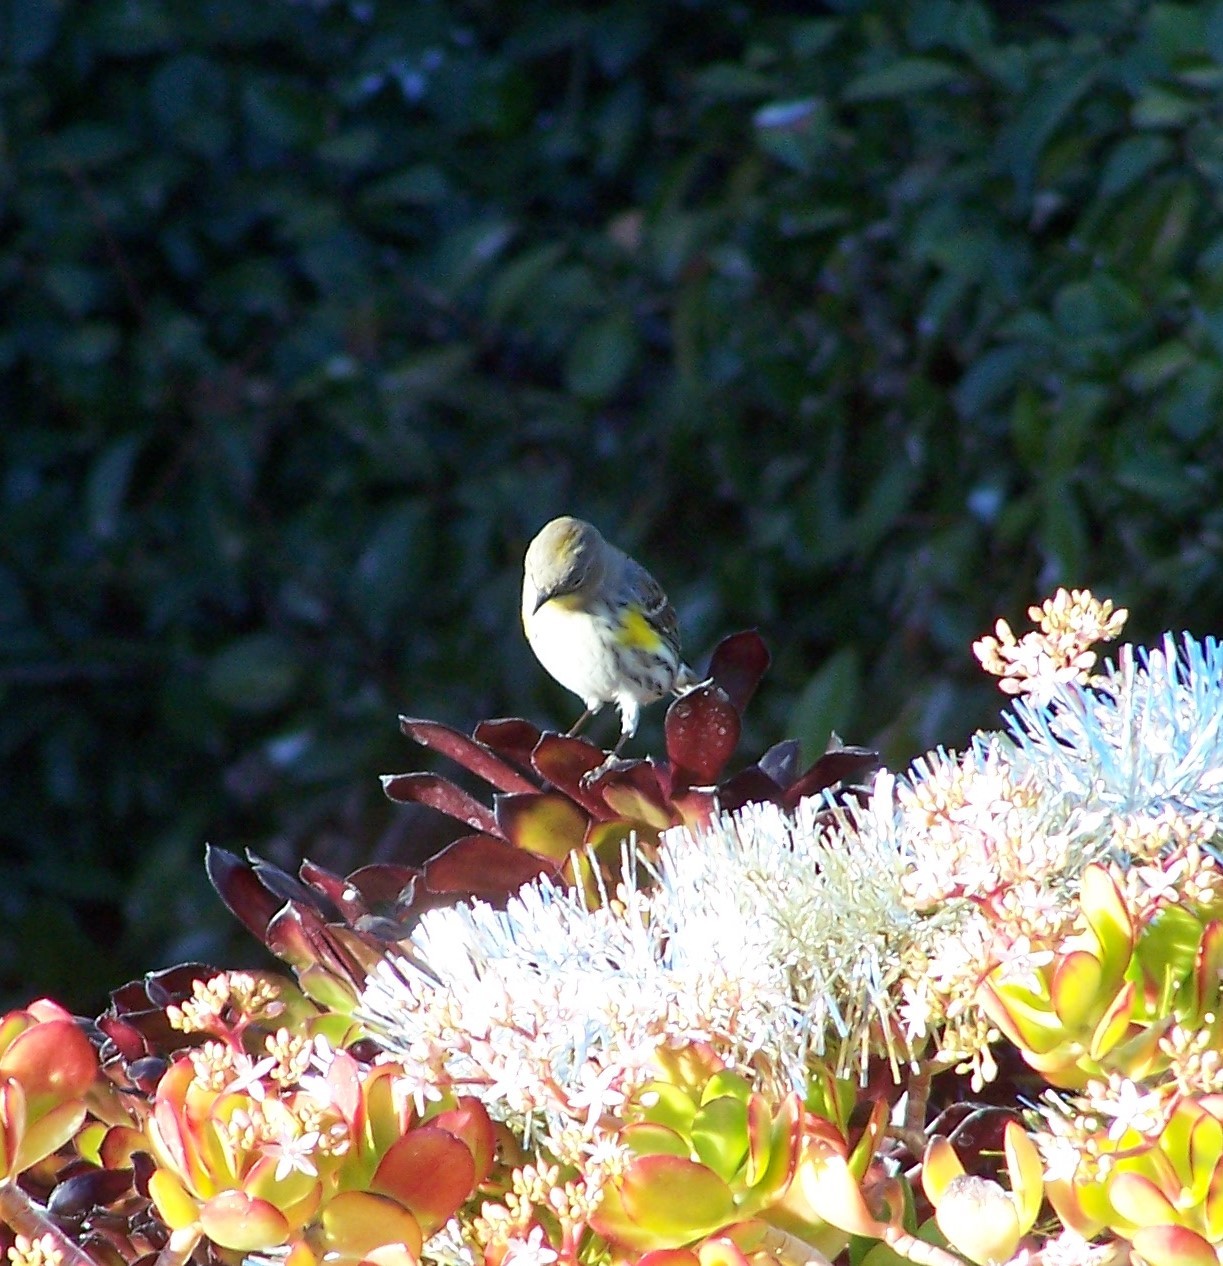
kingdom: Animalia
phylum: Chordata
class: Aves
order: Passeriformes
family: Parulidae
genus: Setophaga
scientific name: Setophaga coronata
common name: Myrtle warbler
